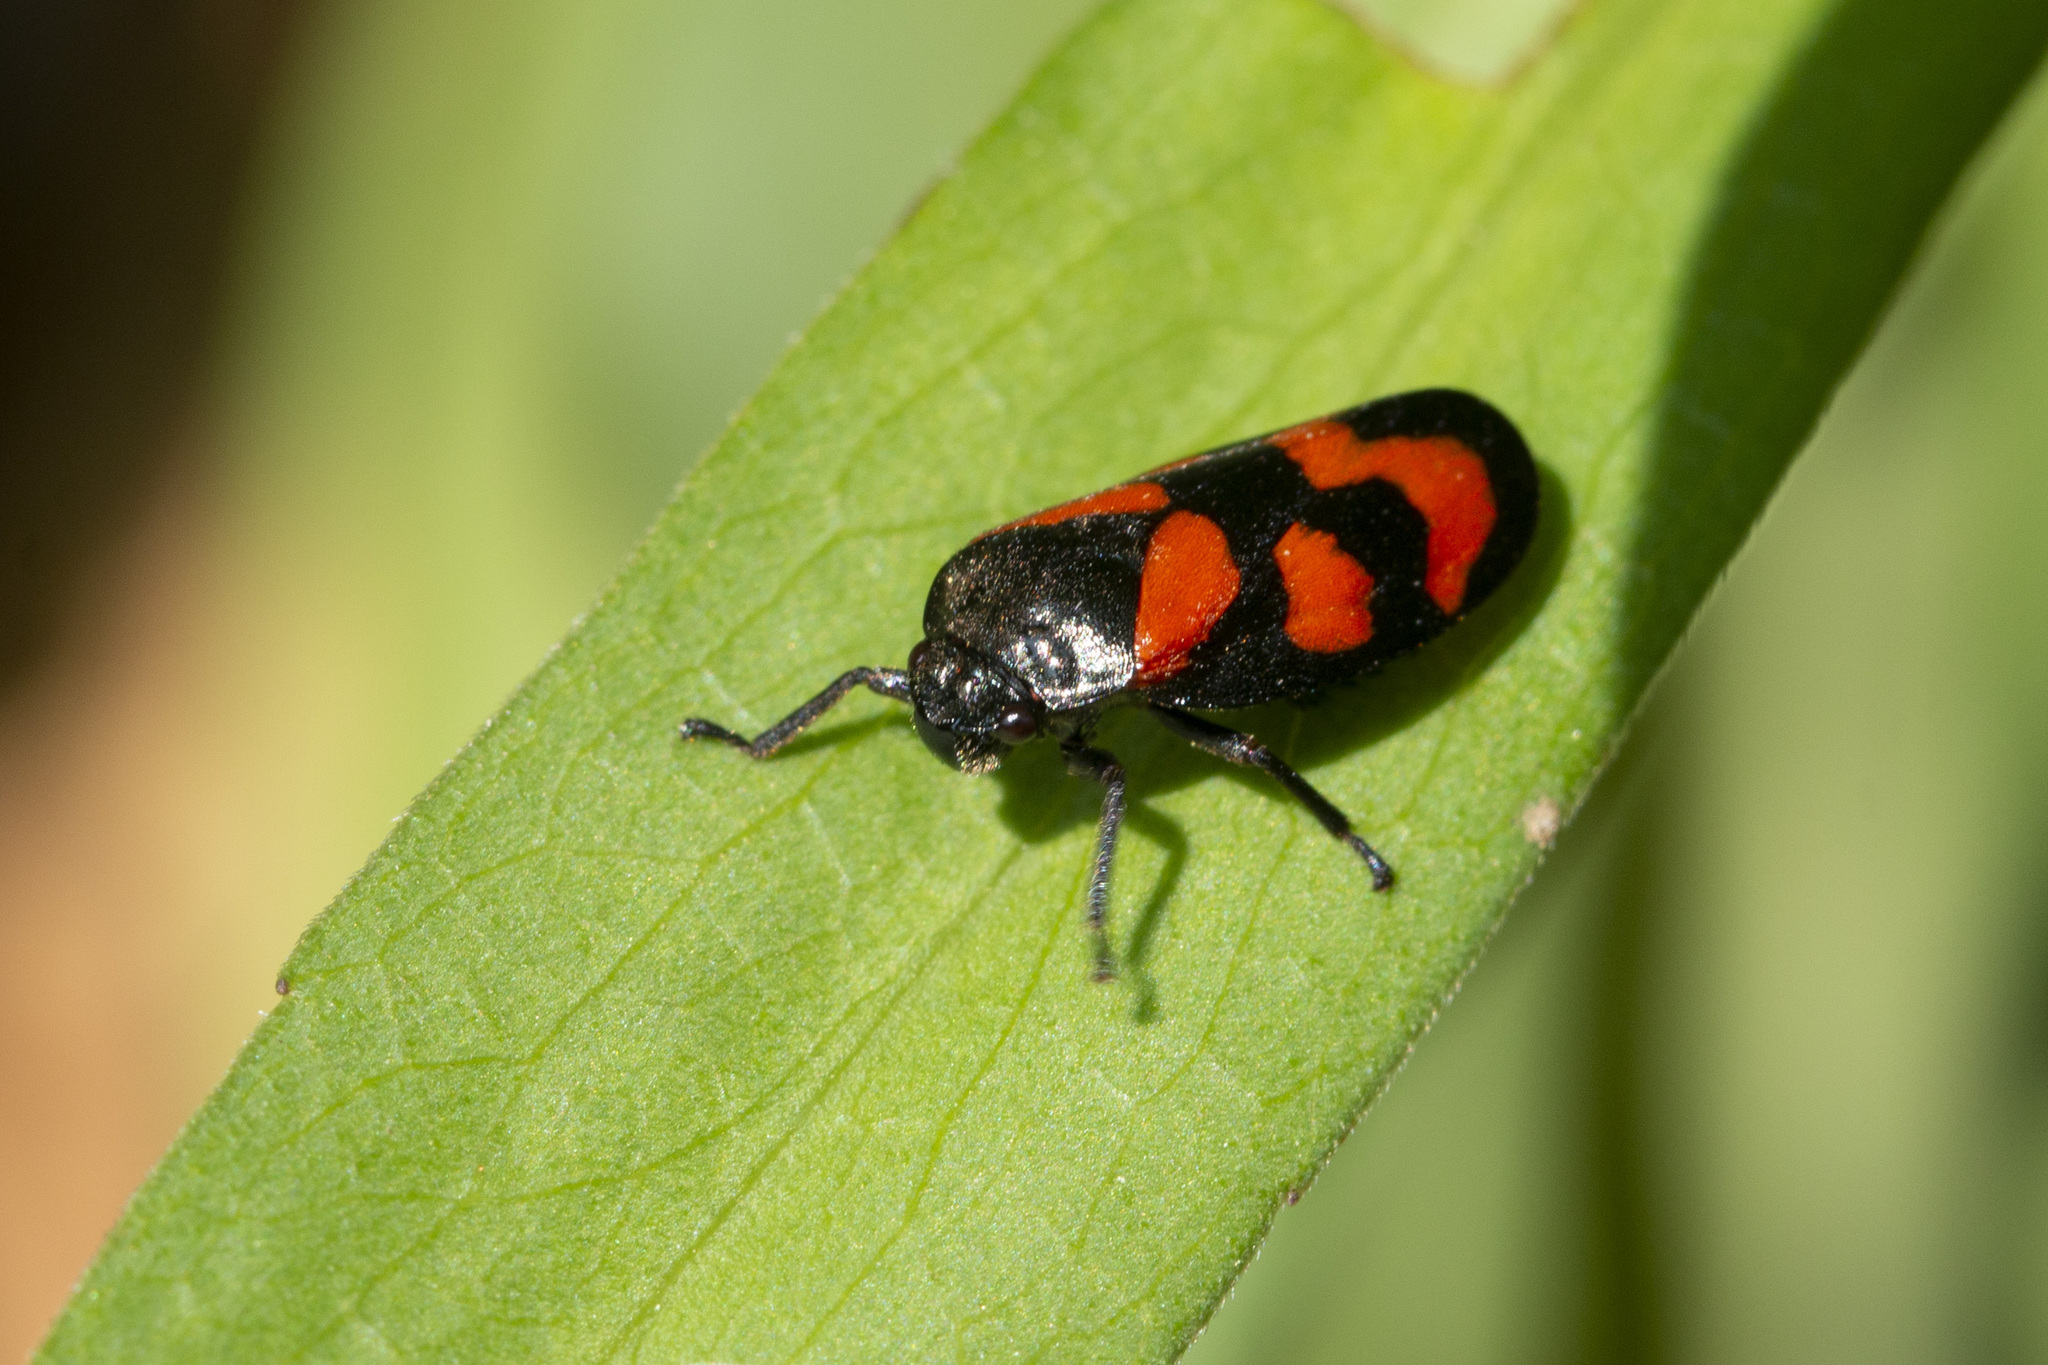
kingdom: Animalia
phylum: Arthropoda
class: Insecta
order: Hemiptera
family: Cercopidae
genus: Cercopis
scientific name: Cercopis vulnerata
